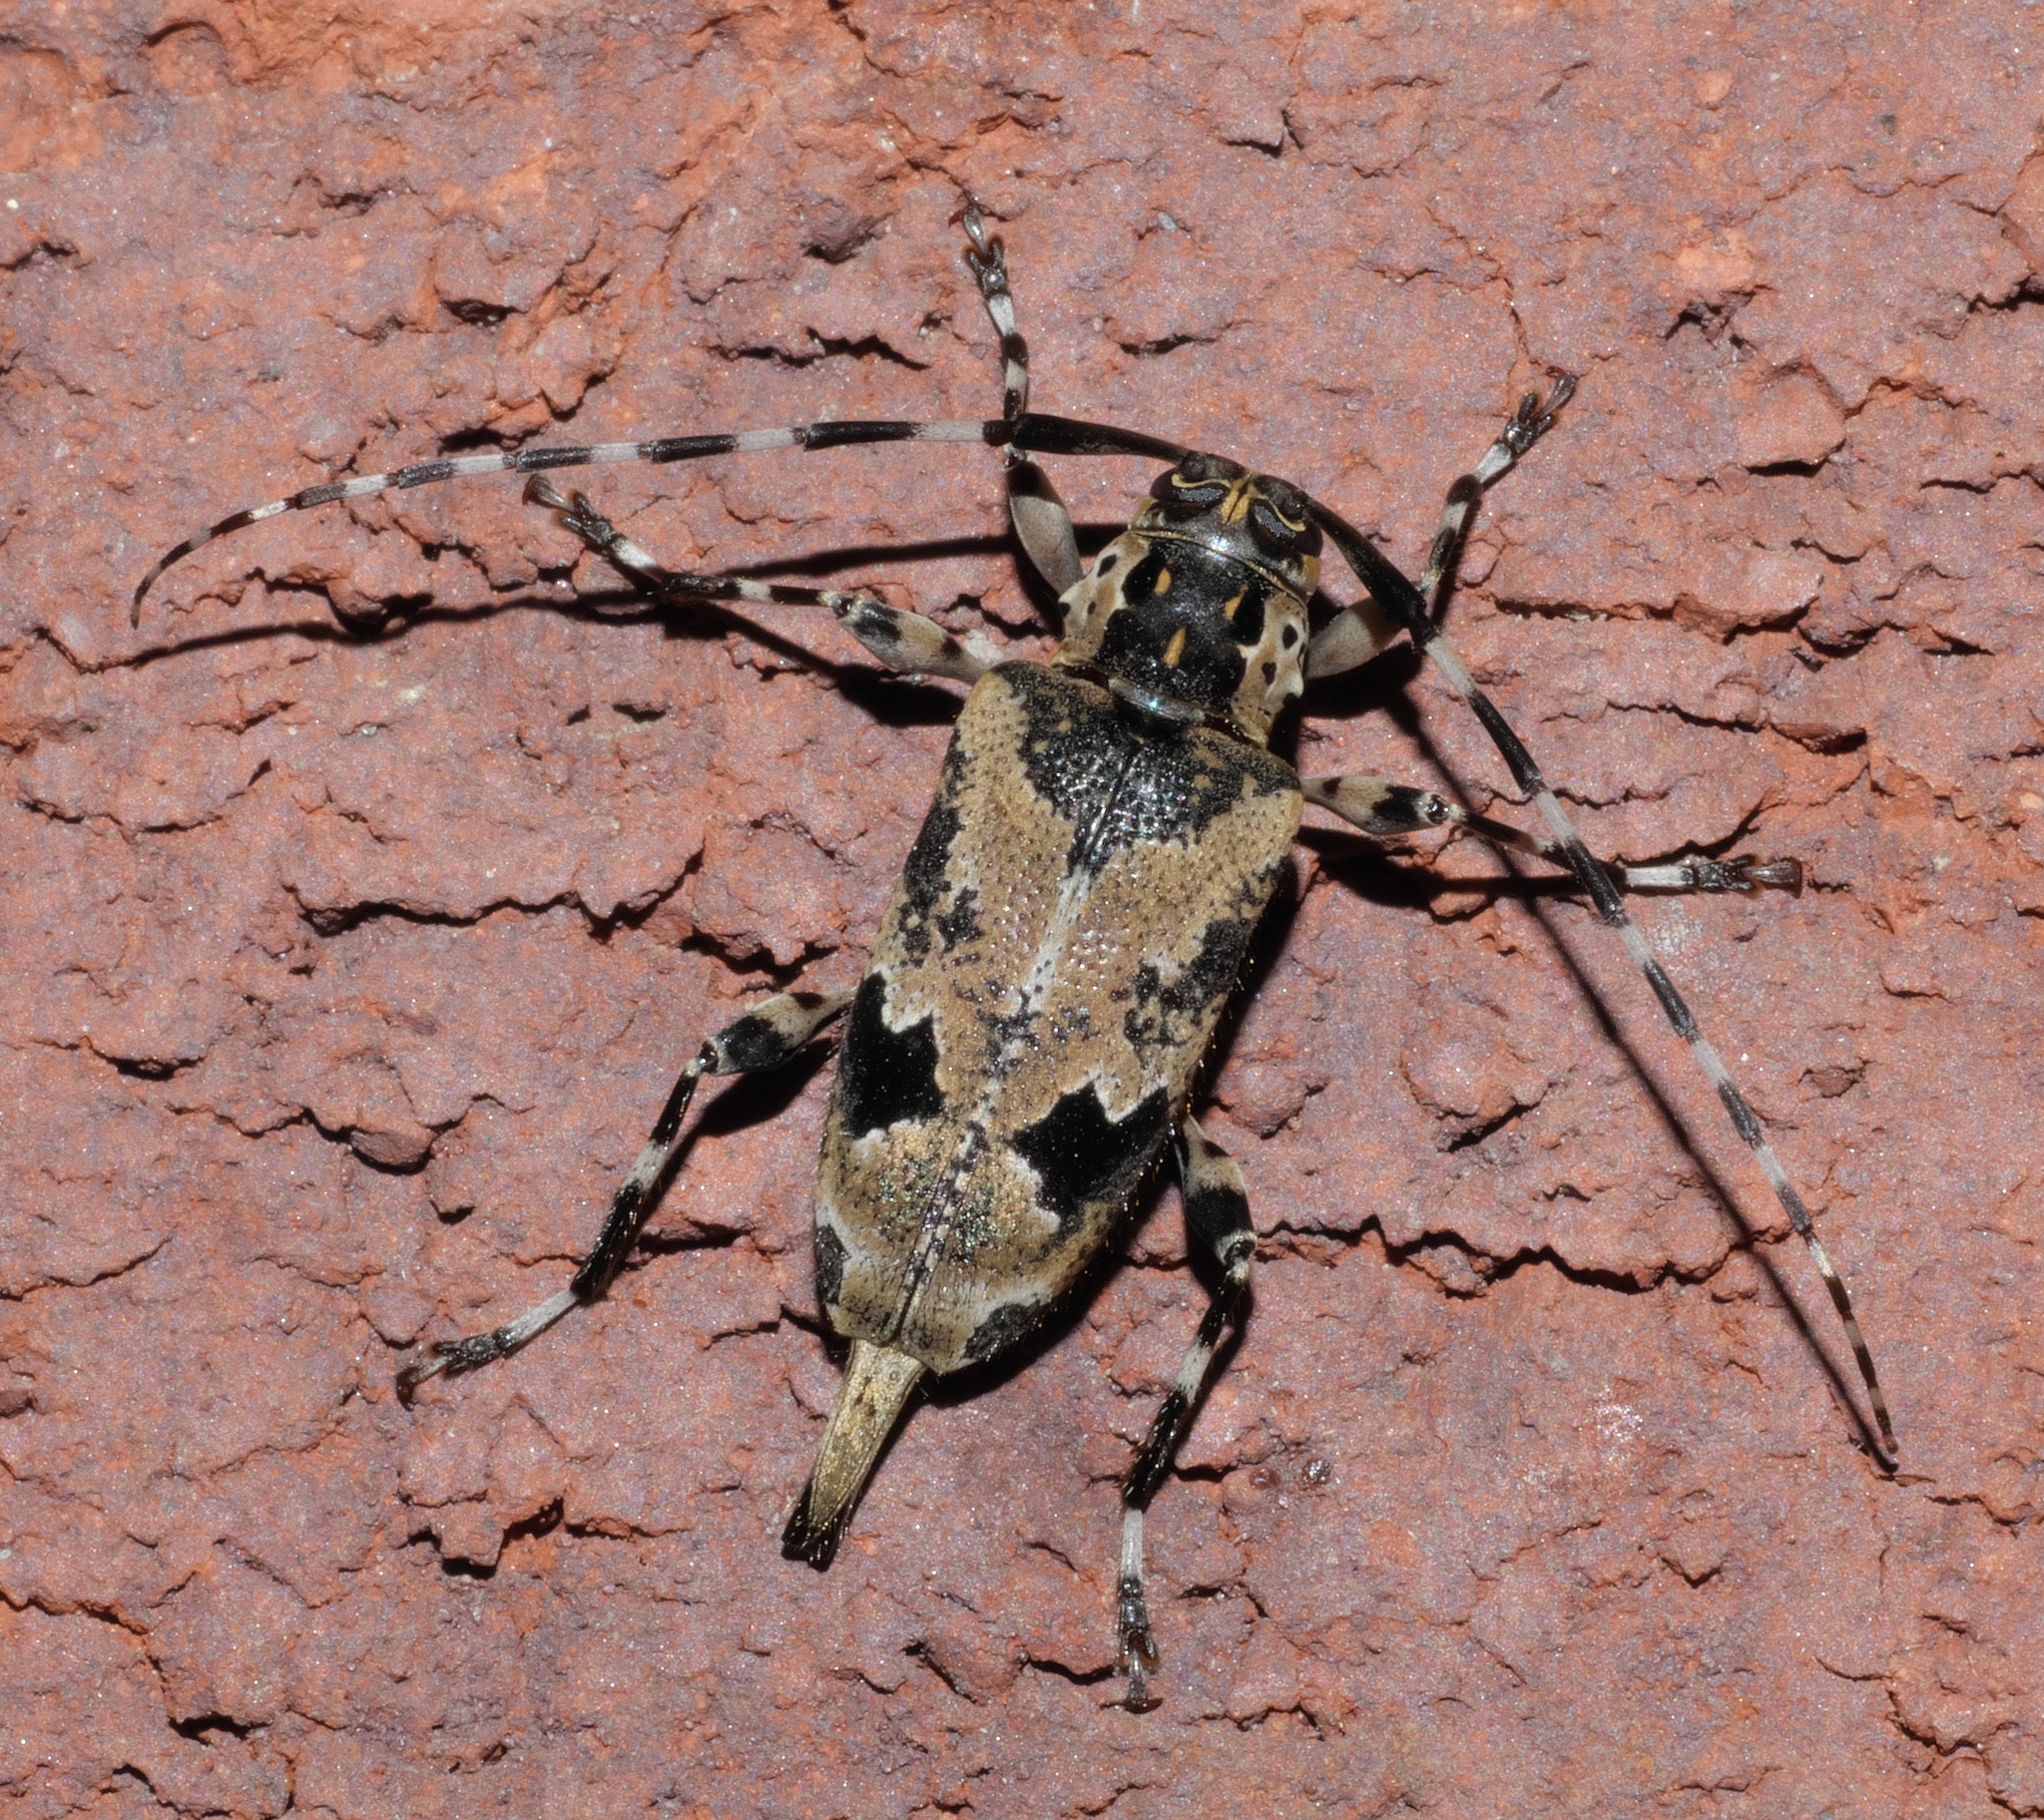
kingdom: Animalia
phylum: Arthropoda
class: Insecta
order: Coleoptera
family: Cerambycidae
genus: Graphisurus
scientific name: Graphisurus triangulifer
